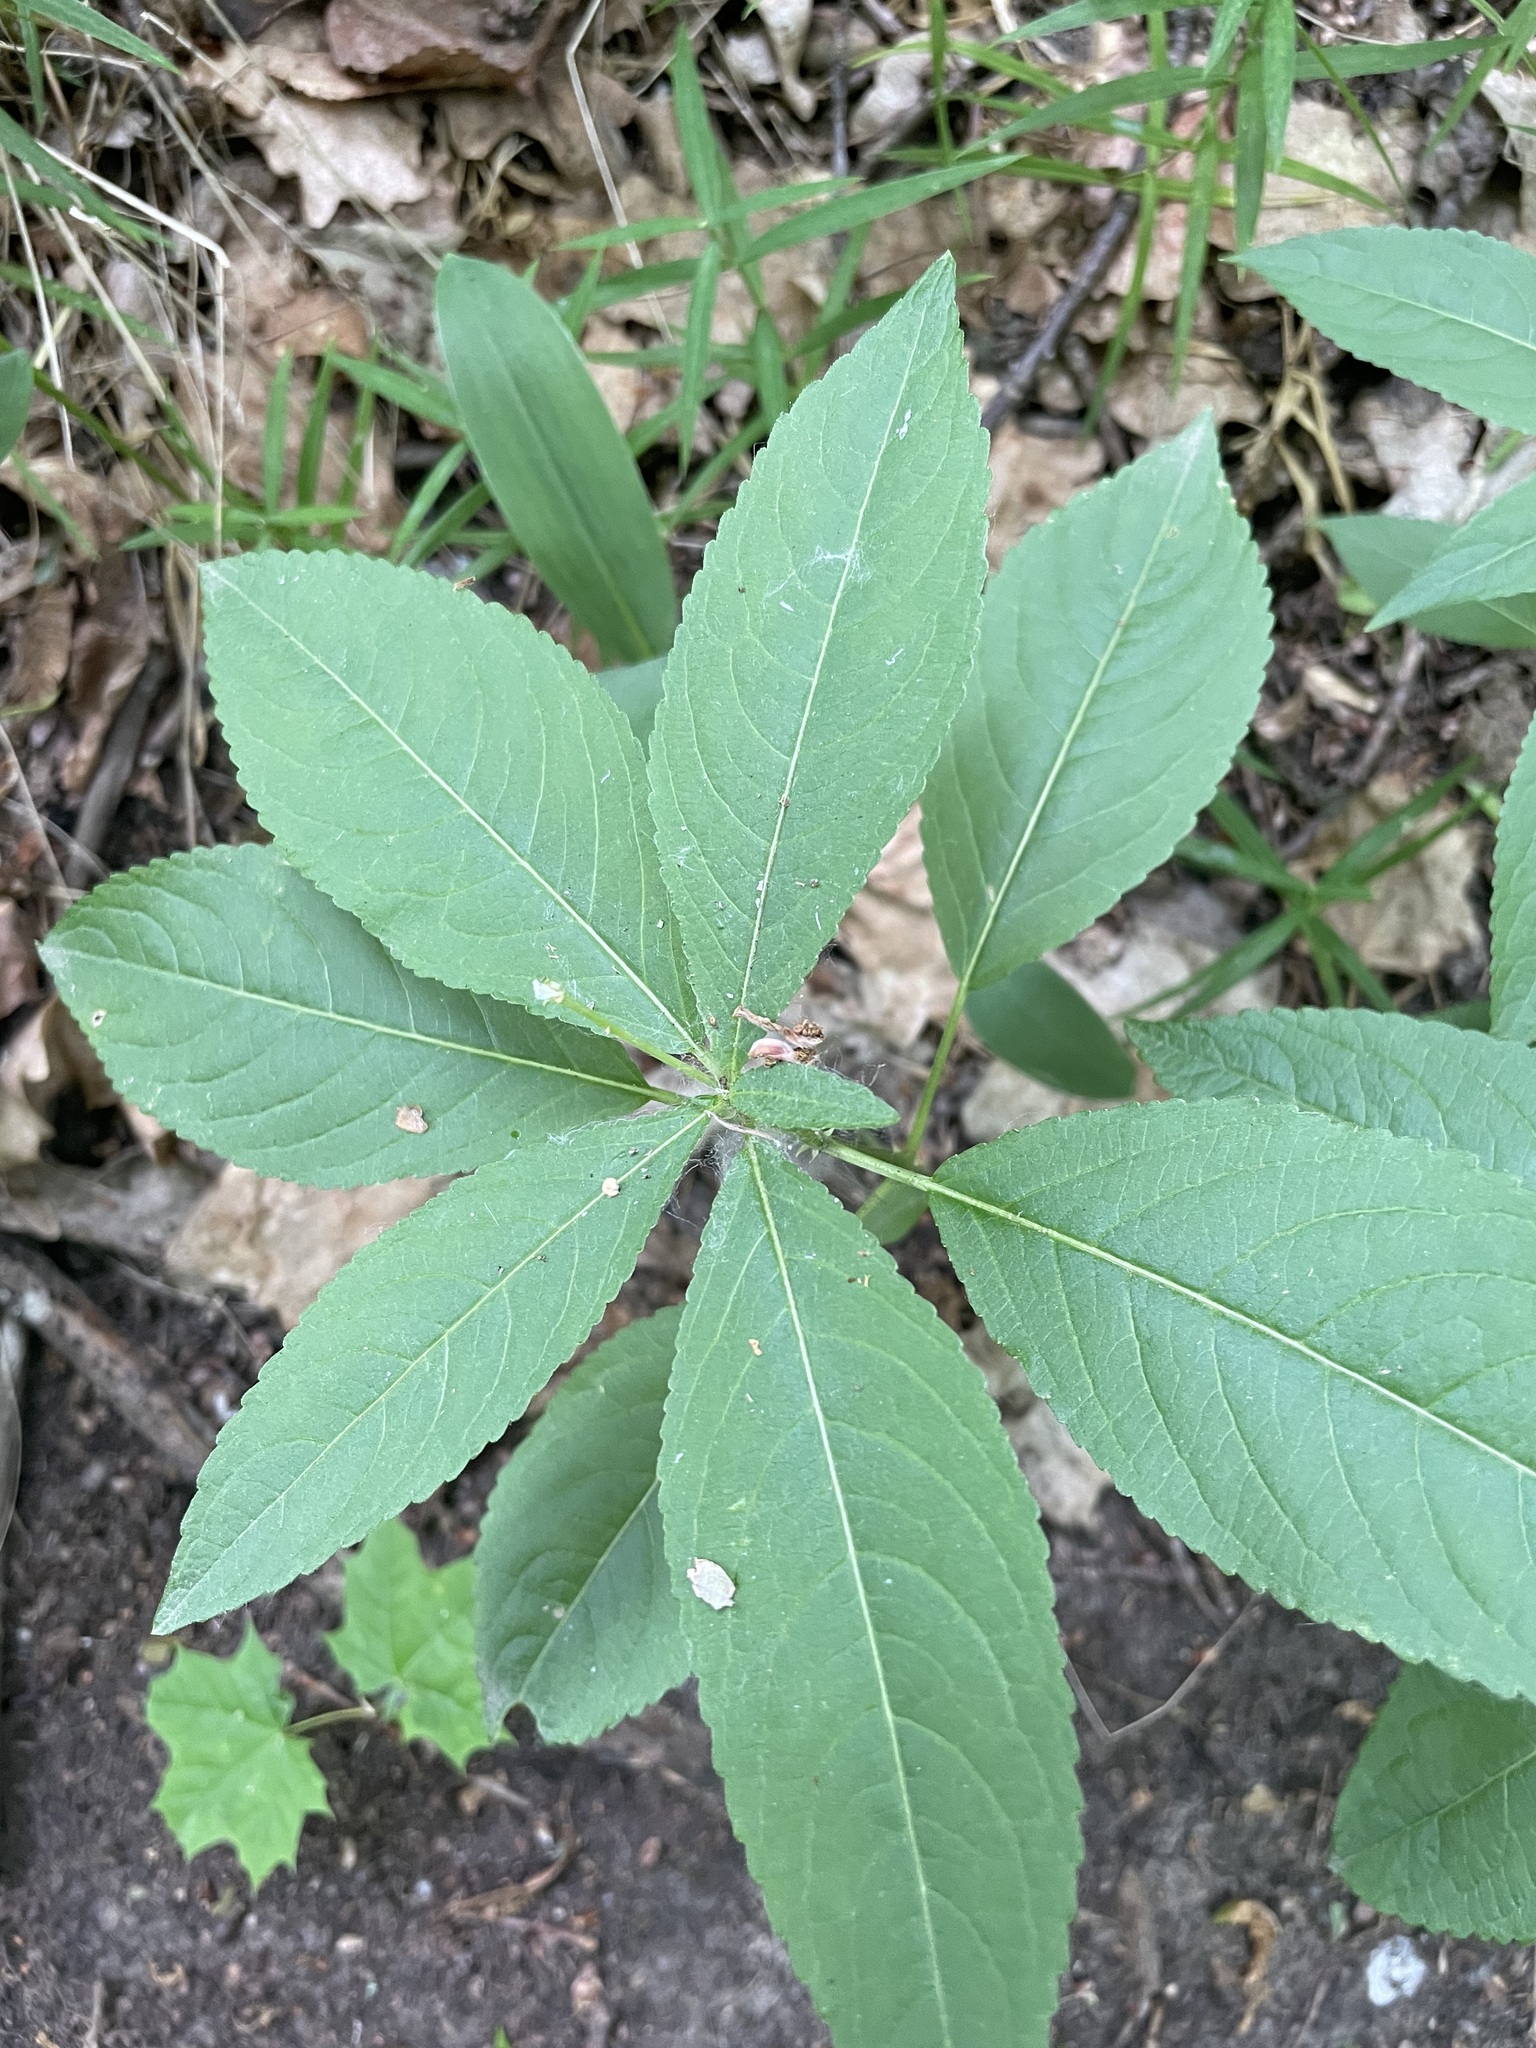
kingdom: Plantae
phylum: Tracheophyta
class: Magnoliopsida
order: Malpighiales
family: Euphorbiaceae
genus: Mercurialis
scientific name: Mercurialis perennis
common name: Dog mercury
